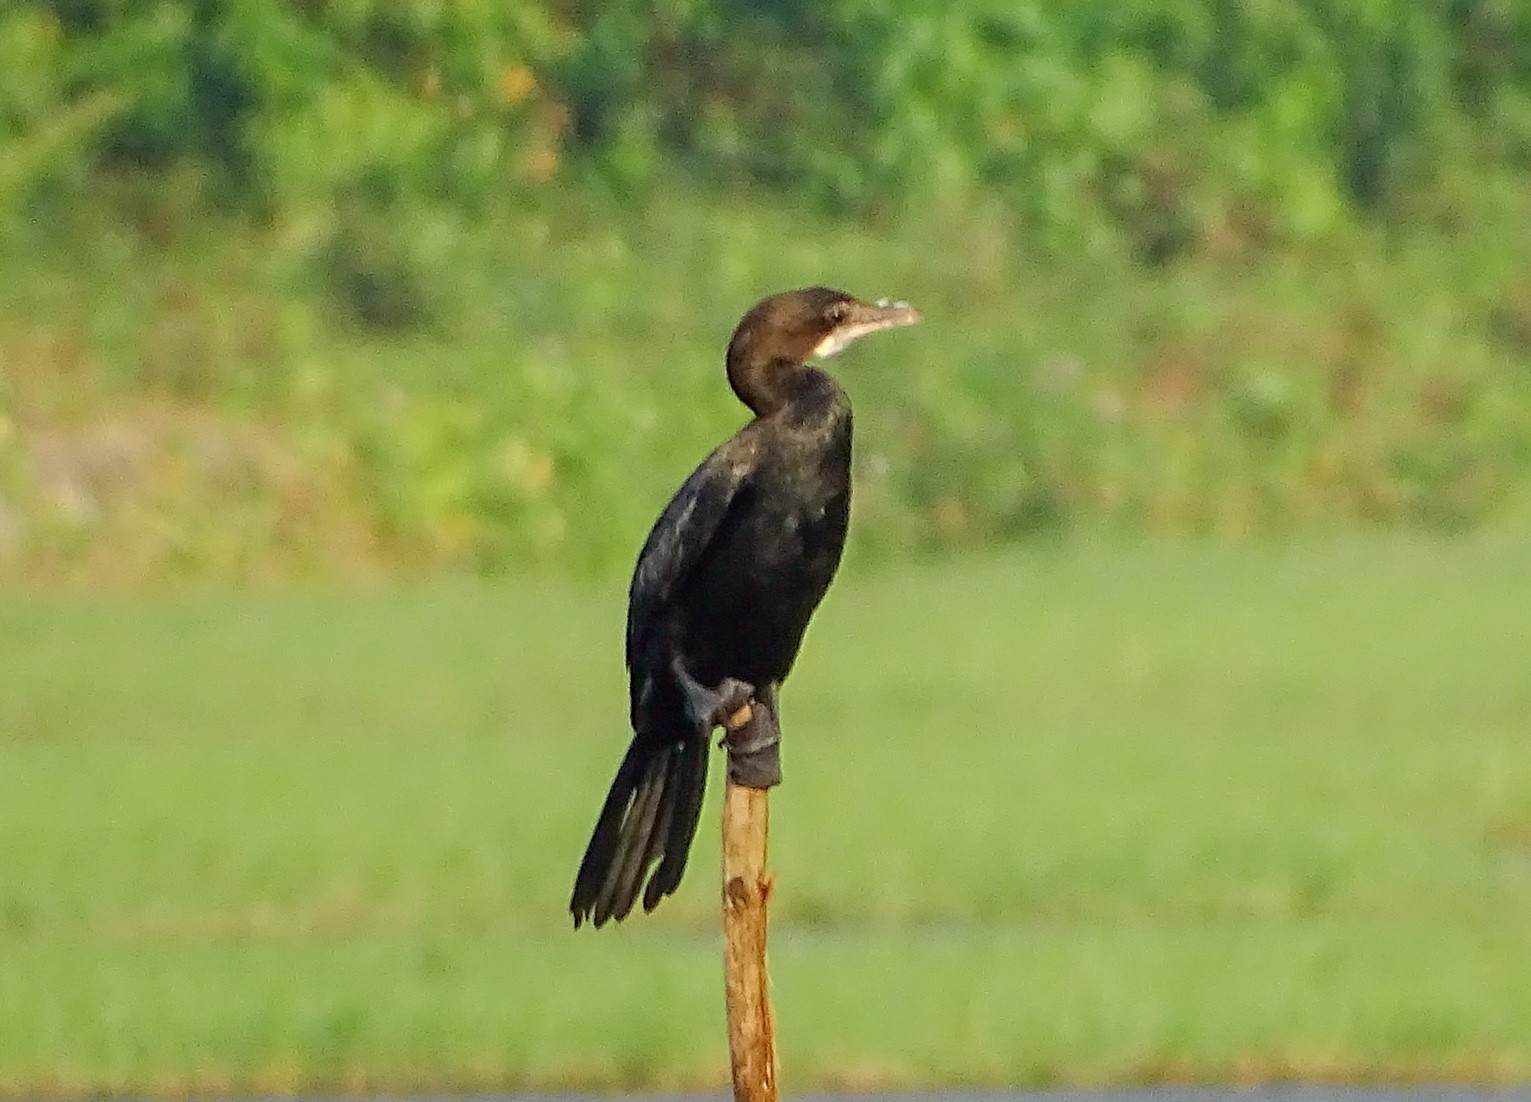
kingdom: Animalia
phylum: Chordata
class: Aves
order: Suliformes
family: Phalacrocoracidae
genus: Microcarbo
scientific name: Microcarbo niger
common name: Little cormorant
